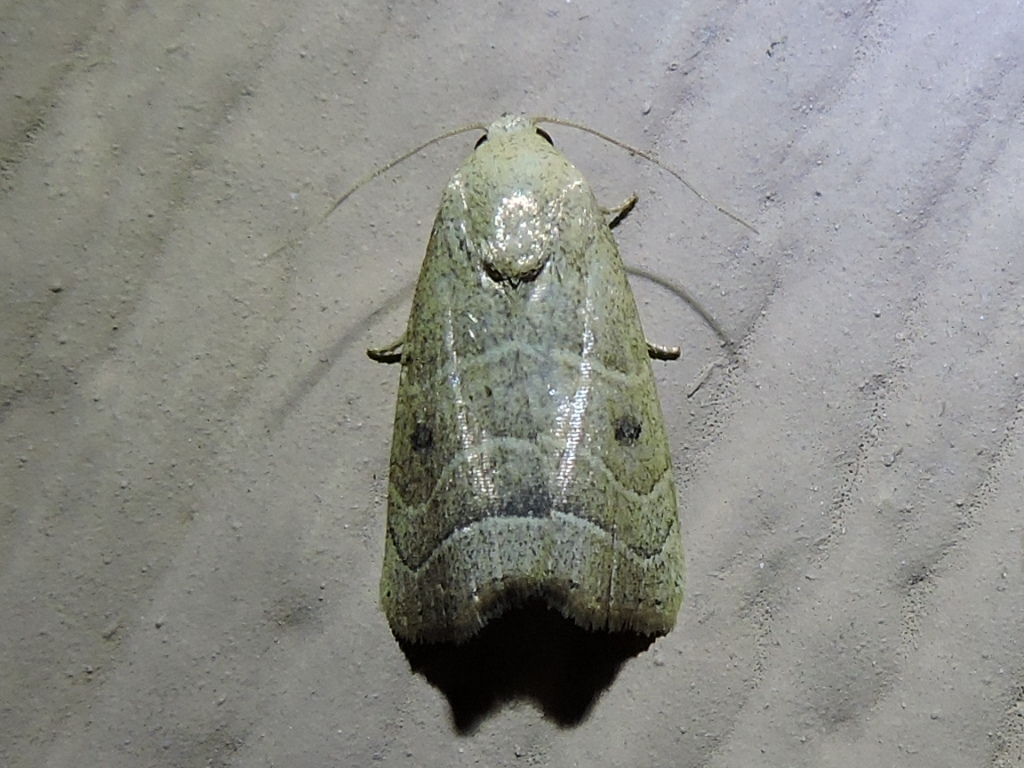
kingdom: Animalia
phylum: Arthropoda
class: Insecta
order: Lepidoptera
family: Noctuidae
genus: Bagisara
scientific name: Bagisara repanda
